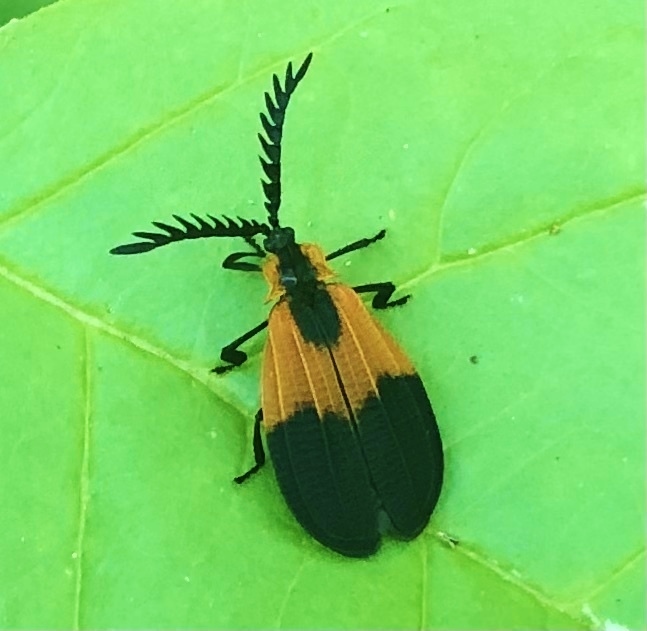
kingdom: Animalia
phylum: Arthropoda
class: Insecta
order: Coleoptera
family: Lycidae
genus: Caenia
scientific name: Caenia dimidiata
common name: Terminal net-winged beetle
